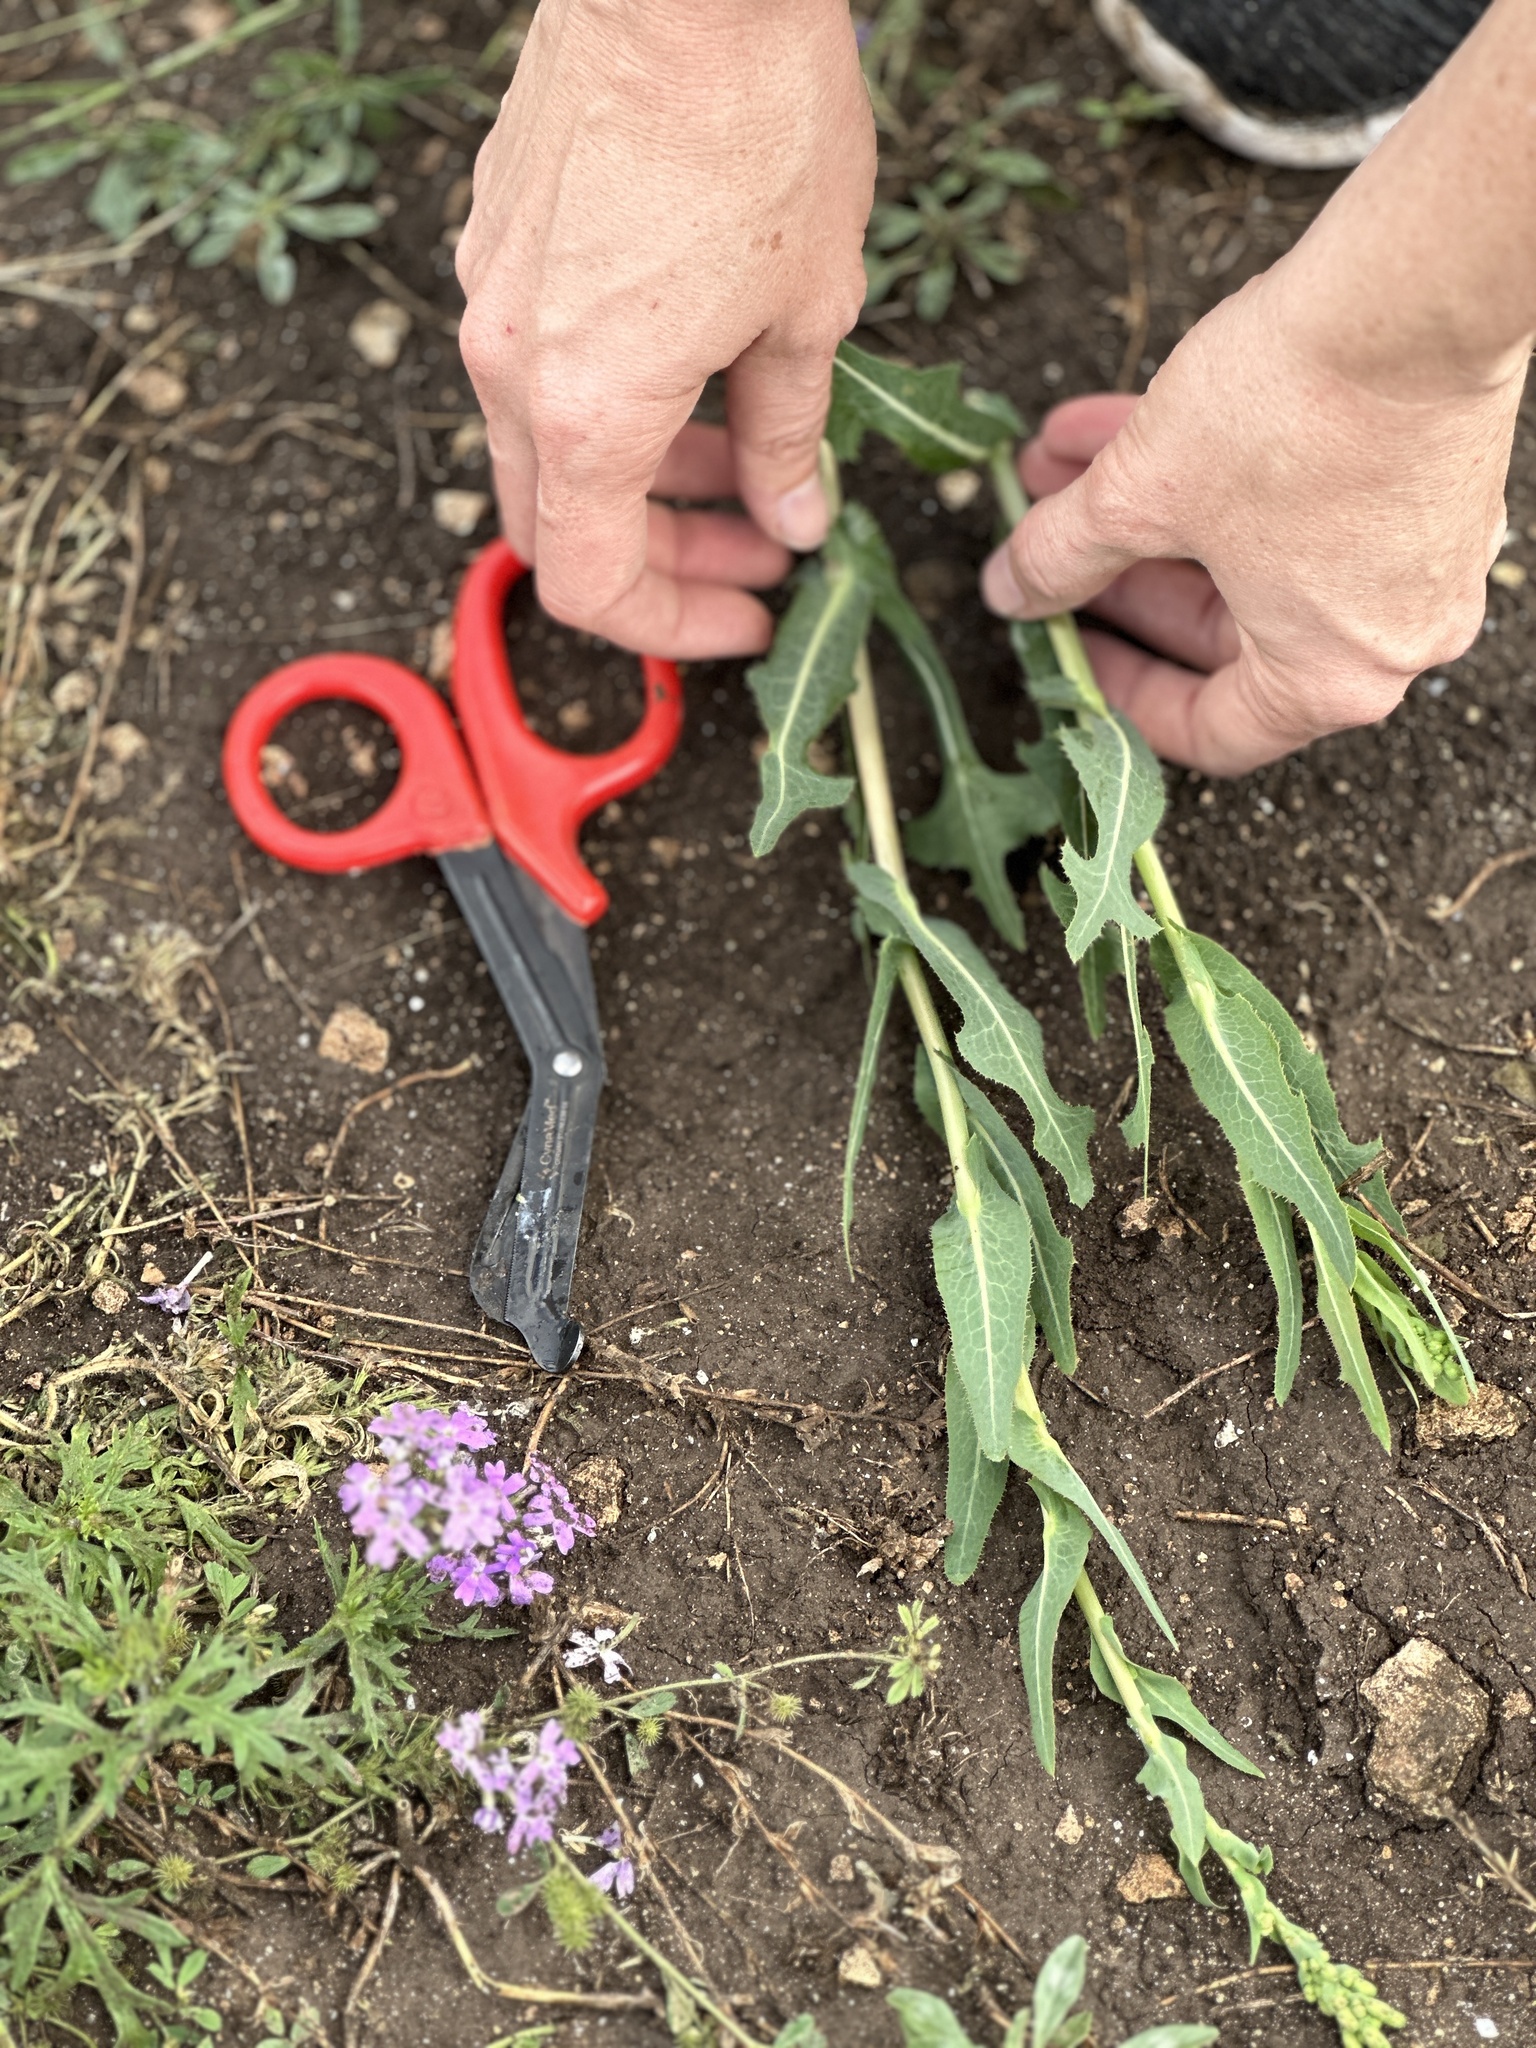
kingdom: Plantae
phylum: Tracheophyta
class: Magnoliopsida
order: Asterales
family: Asteraceae
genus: Lactuca
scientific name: Lactuca serriola
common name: Prickly lettuce
